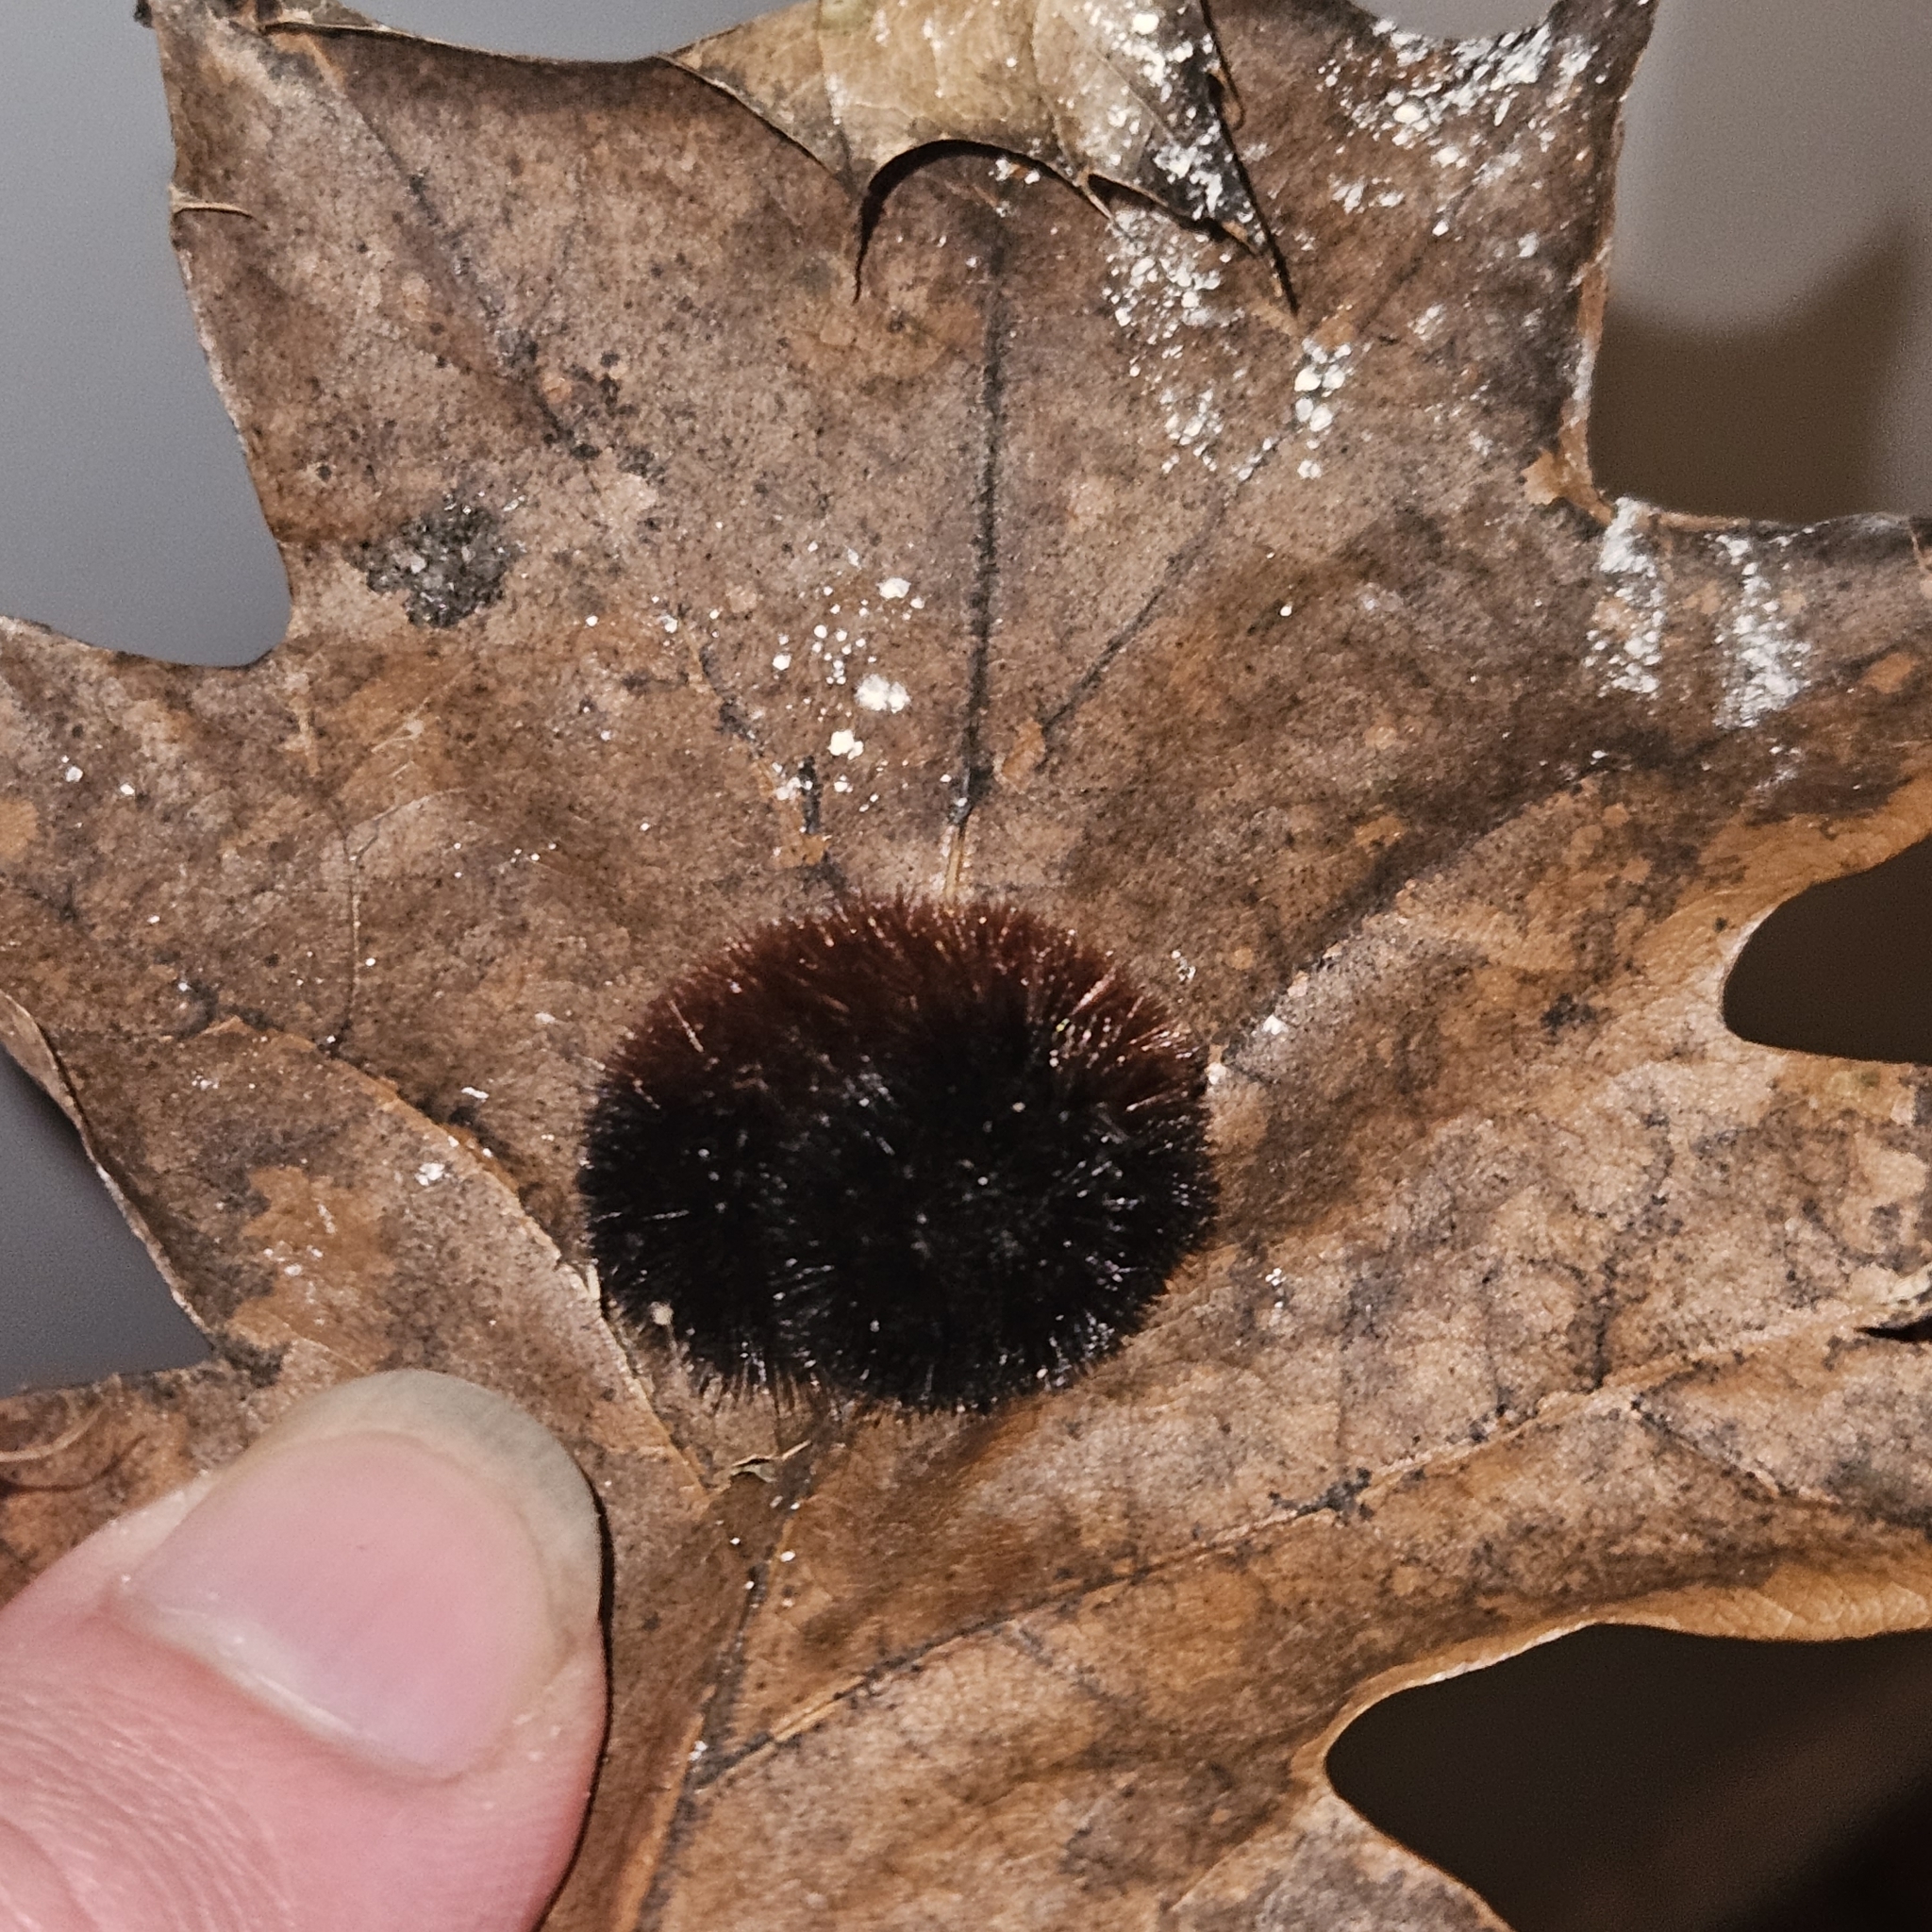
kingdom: Animalia
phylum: Arthropoda
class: Insecta
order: Lepidoptera
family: Erebidae
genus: Pyrrharctia
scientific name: Pyrrharctia isabella
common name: Isabella tiger moth
